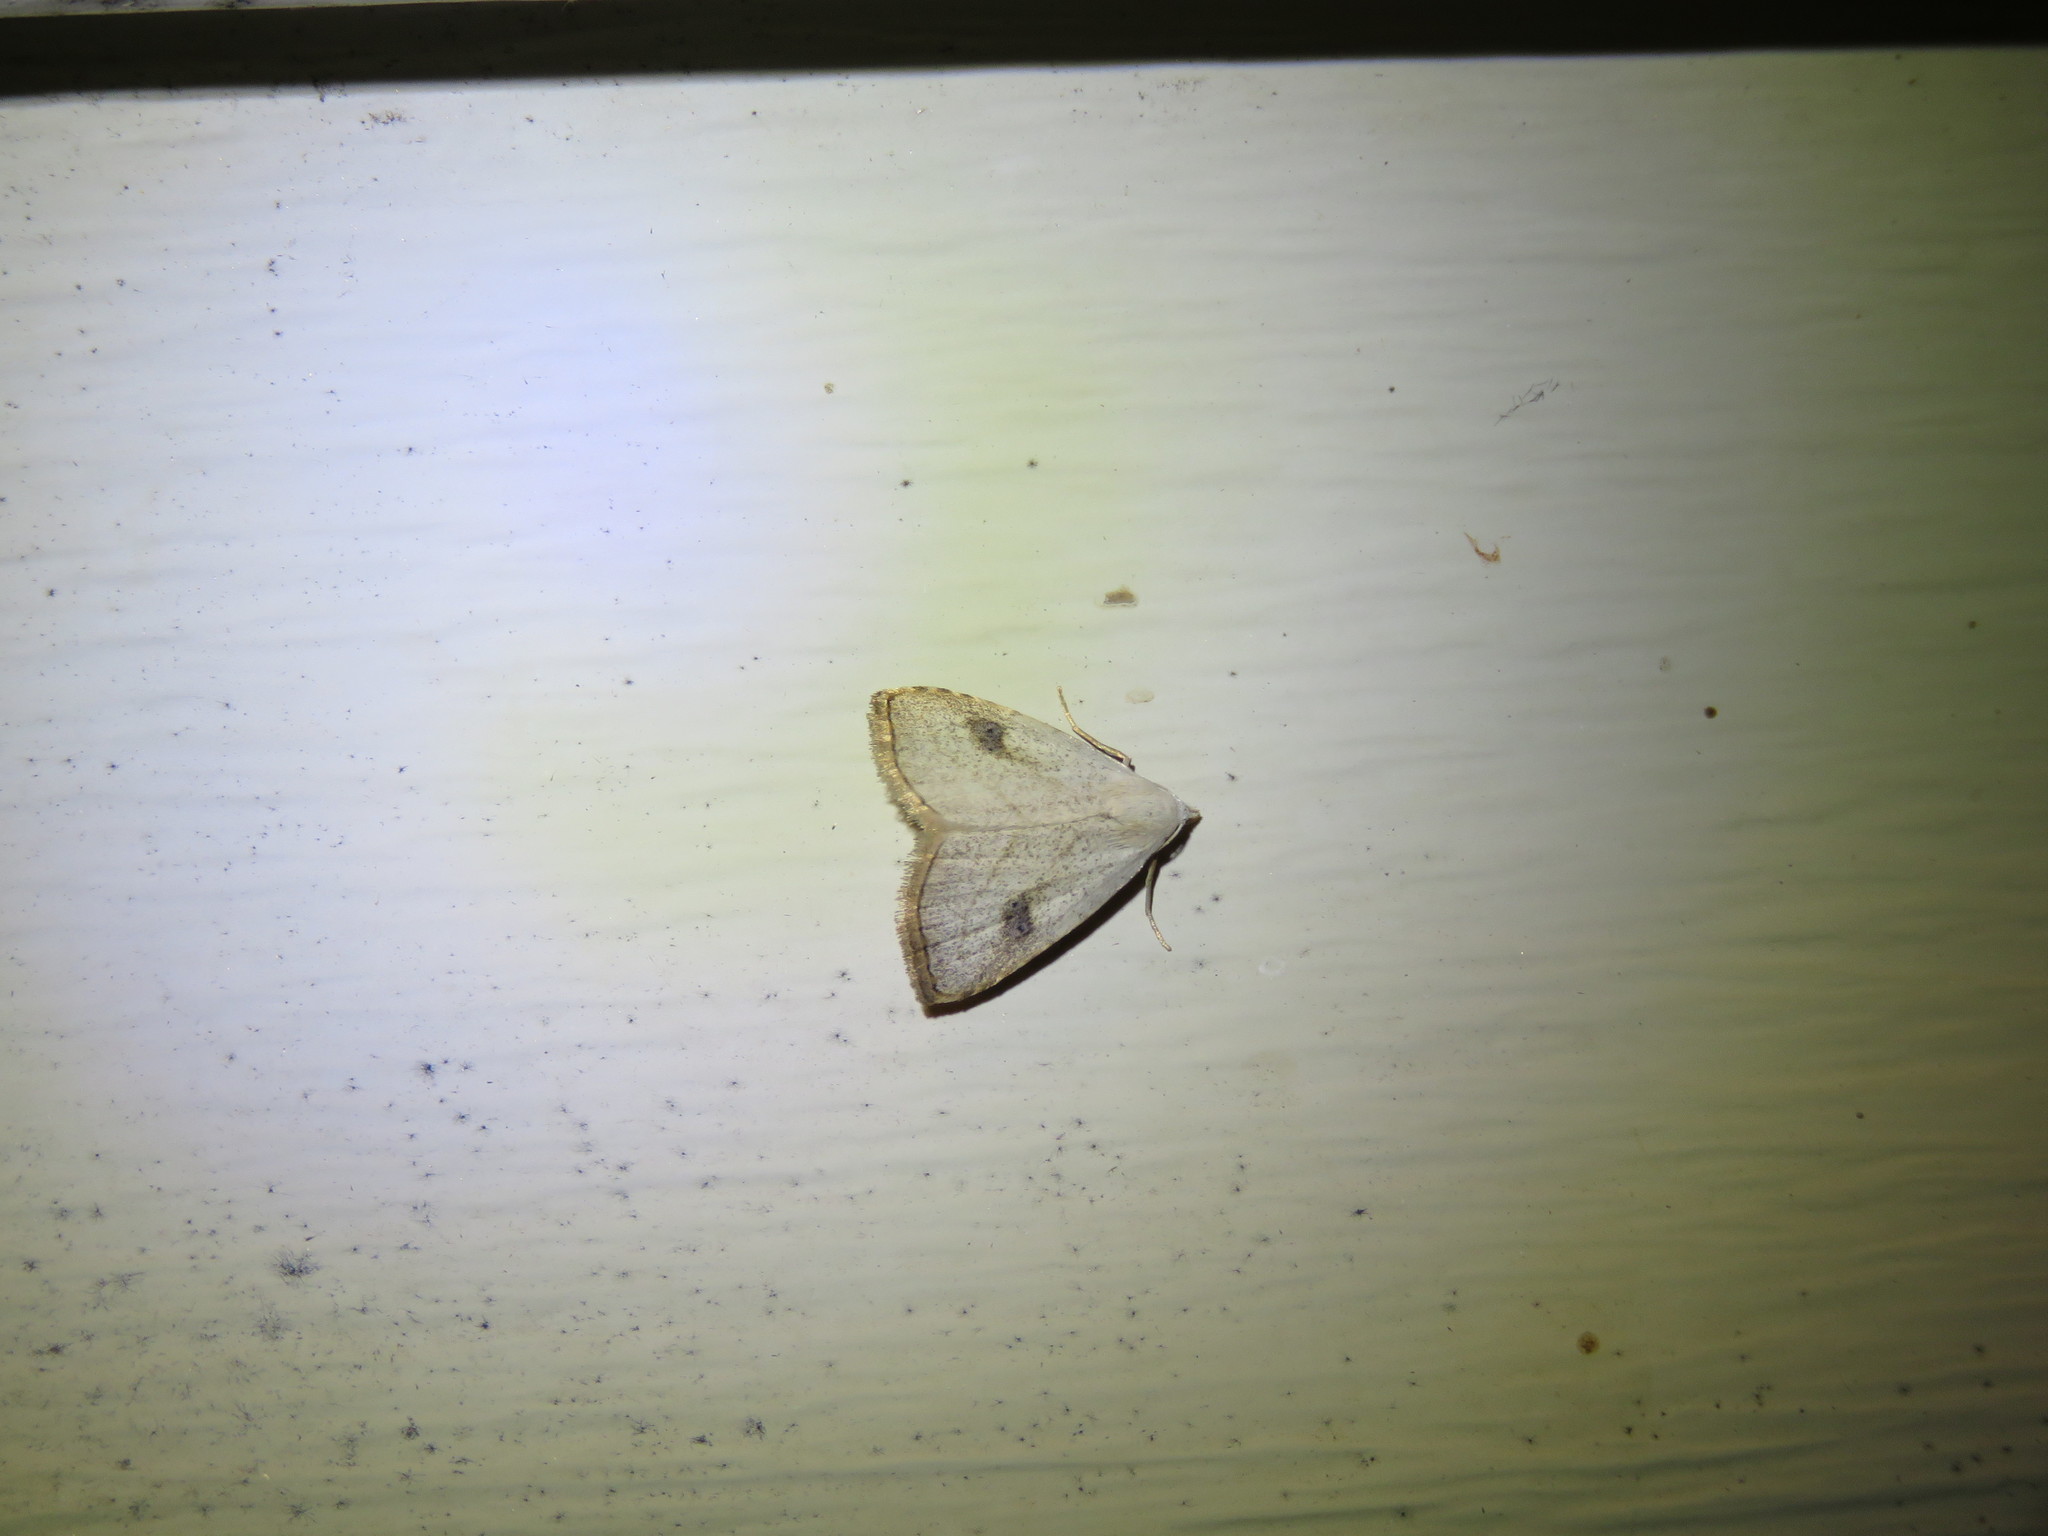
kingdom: Animalia
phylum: Arthropoda
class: Insecta
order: Lepidoptera
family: Erebidae
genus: Rivula
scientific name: Rivula propinqualis
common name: Spotted grass moth
